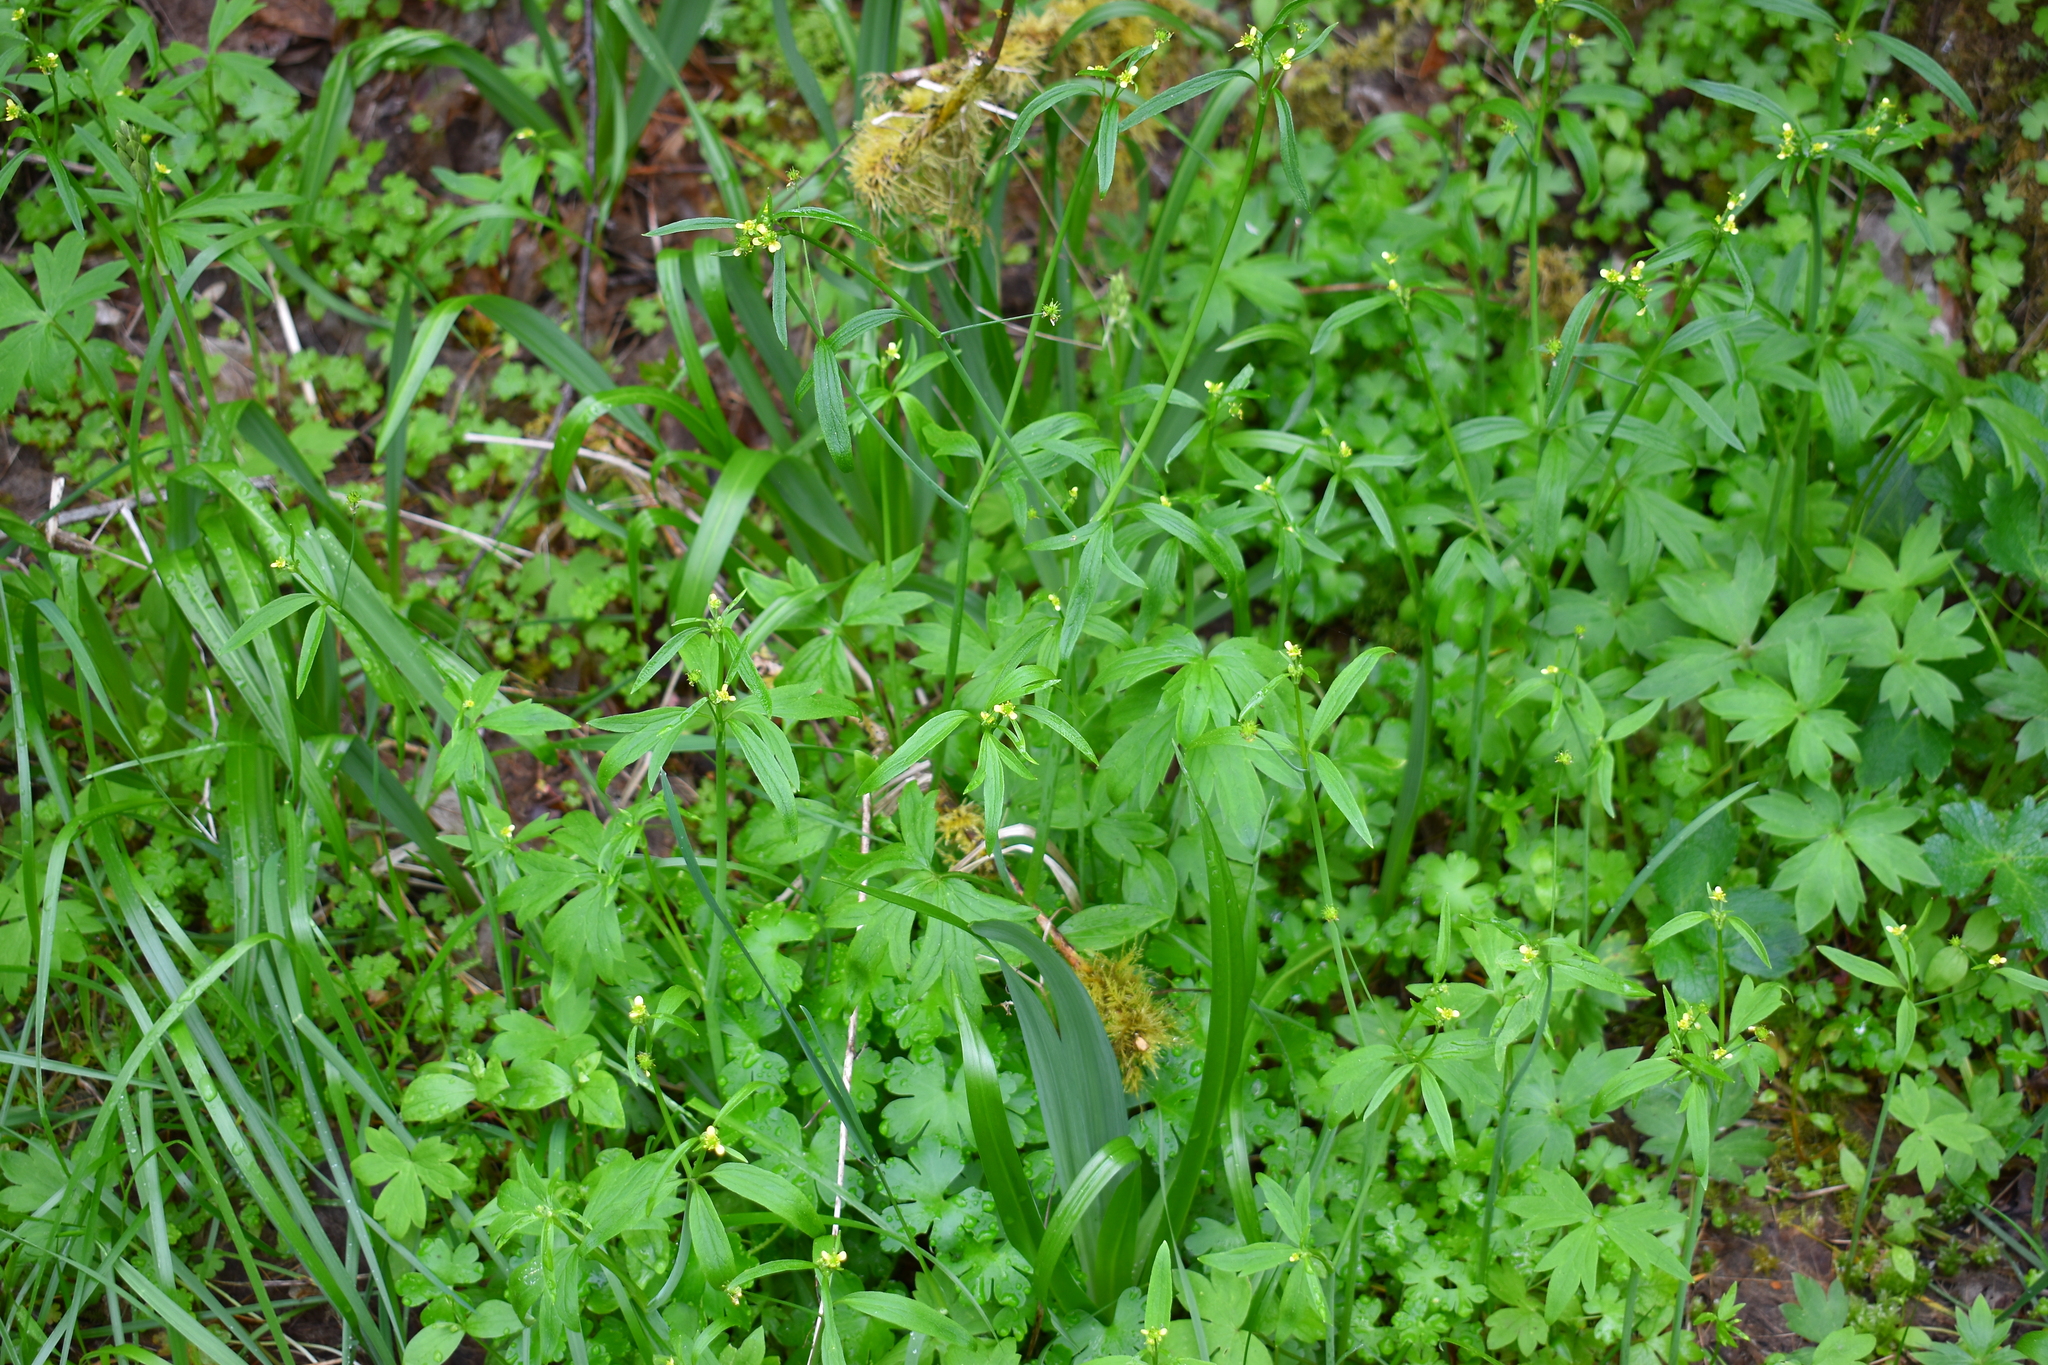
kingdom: Plantae
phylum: Tracheophyta
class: Magnoliopsida
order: Ranunculales
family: Ranunculaceae
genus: Ranunculus
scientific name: Ranunculus uncinatus
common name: Little buttercup
